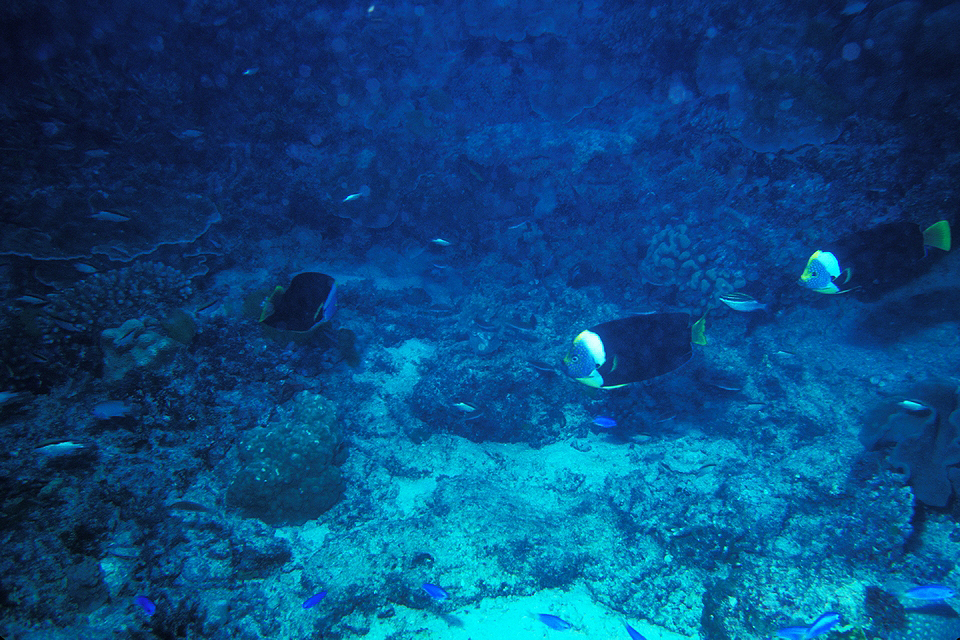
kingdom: Animalia
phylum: Chordata
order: Perciformes
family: Pomacanthidae
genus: Chaetodontoplus
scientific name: Chaetodontoplus meredithi
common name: Meredith's angelfish
